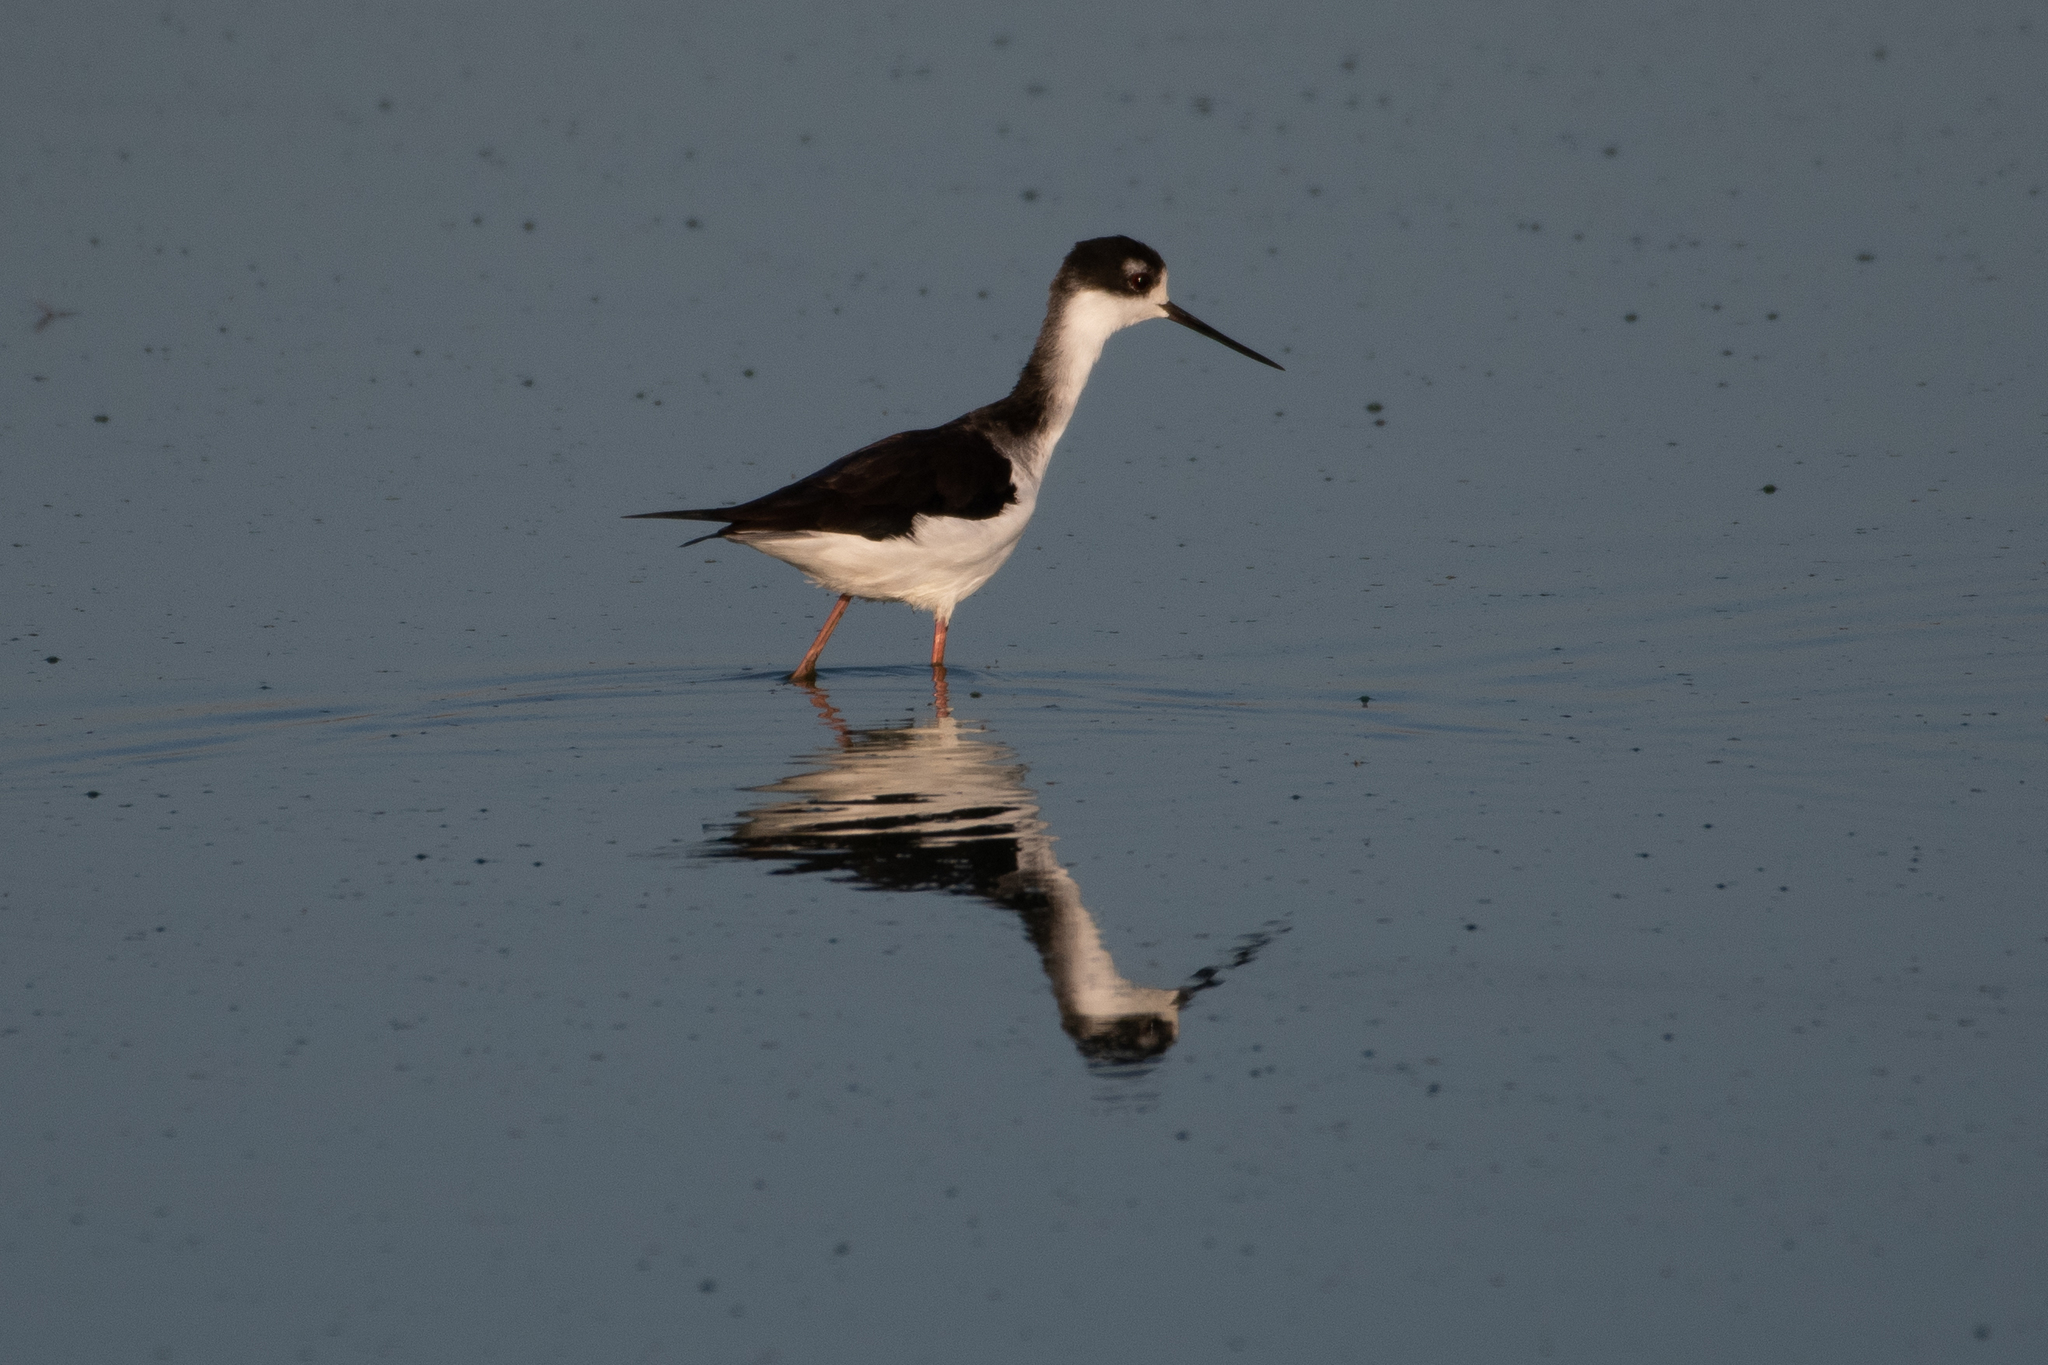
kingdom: Animalia
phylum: Chordata
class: Aves
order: Charadriiformes
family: Recurvirostridae
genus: Himantopus
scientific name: Himantopus mexicanus
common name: Black-necked stilt
